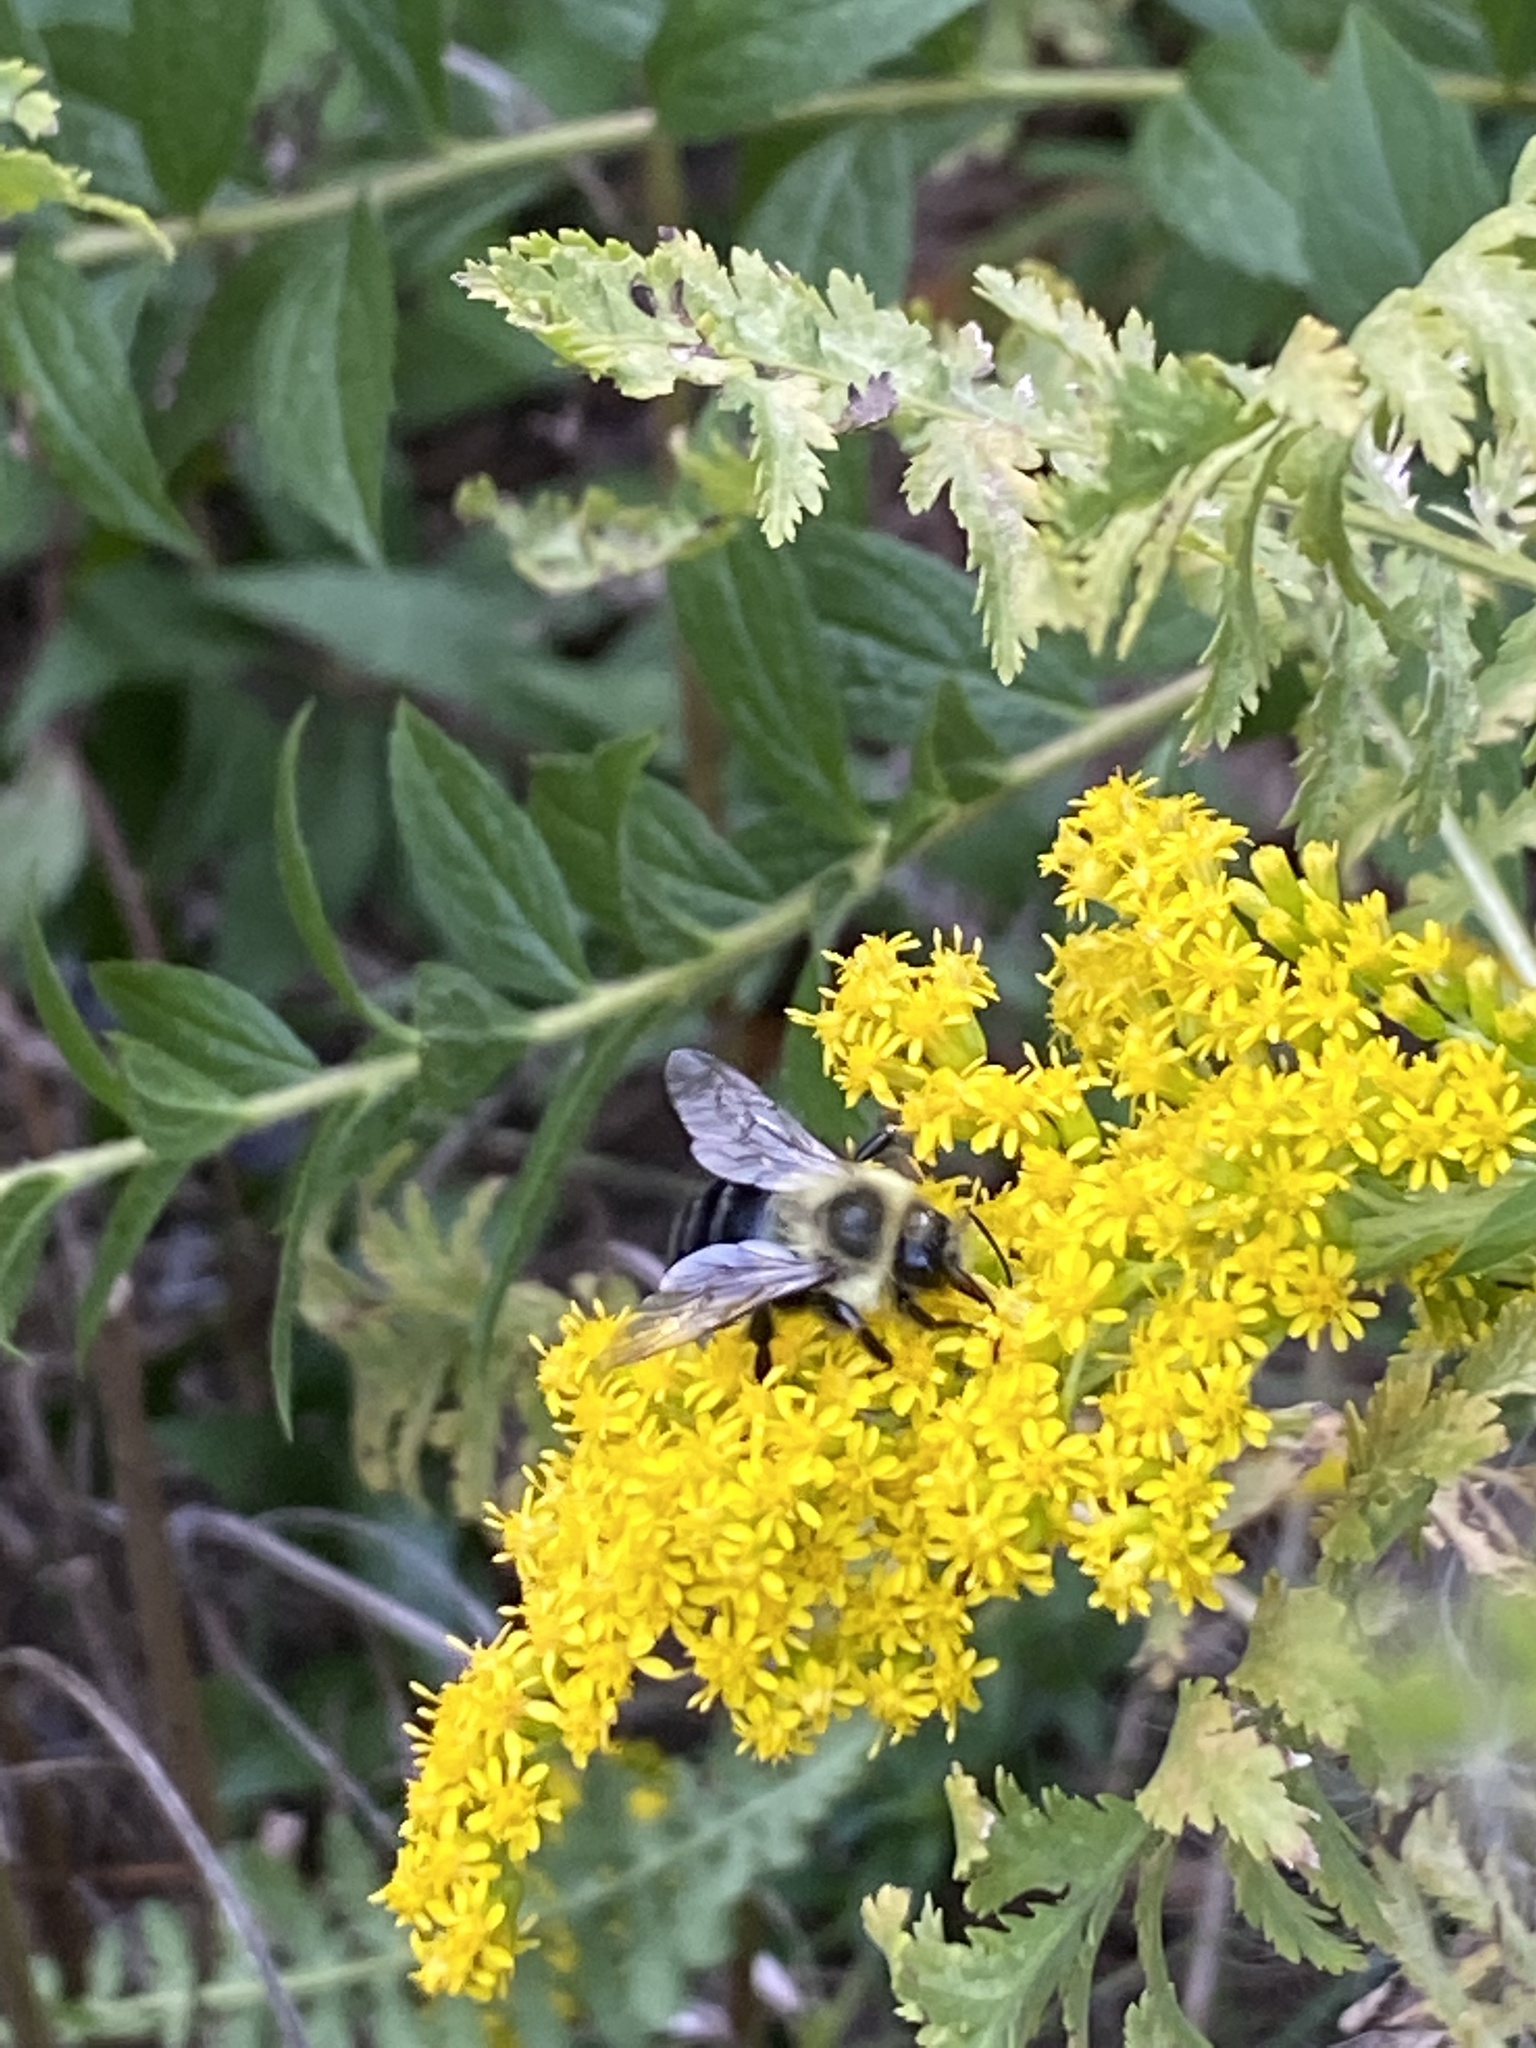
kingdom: Animalia
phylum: Arthropoda
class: Insecta
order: Hymenoptera
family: Apidae
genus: Bombus
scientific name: Bombus impatiens
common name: Common eastern bumble bee
